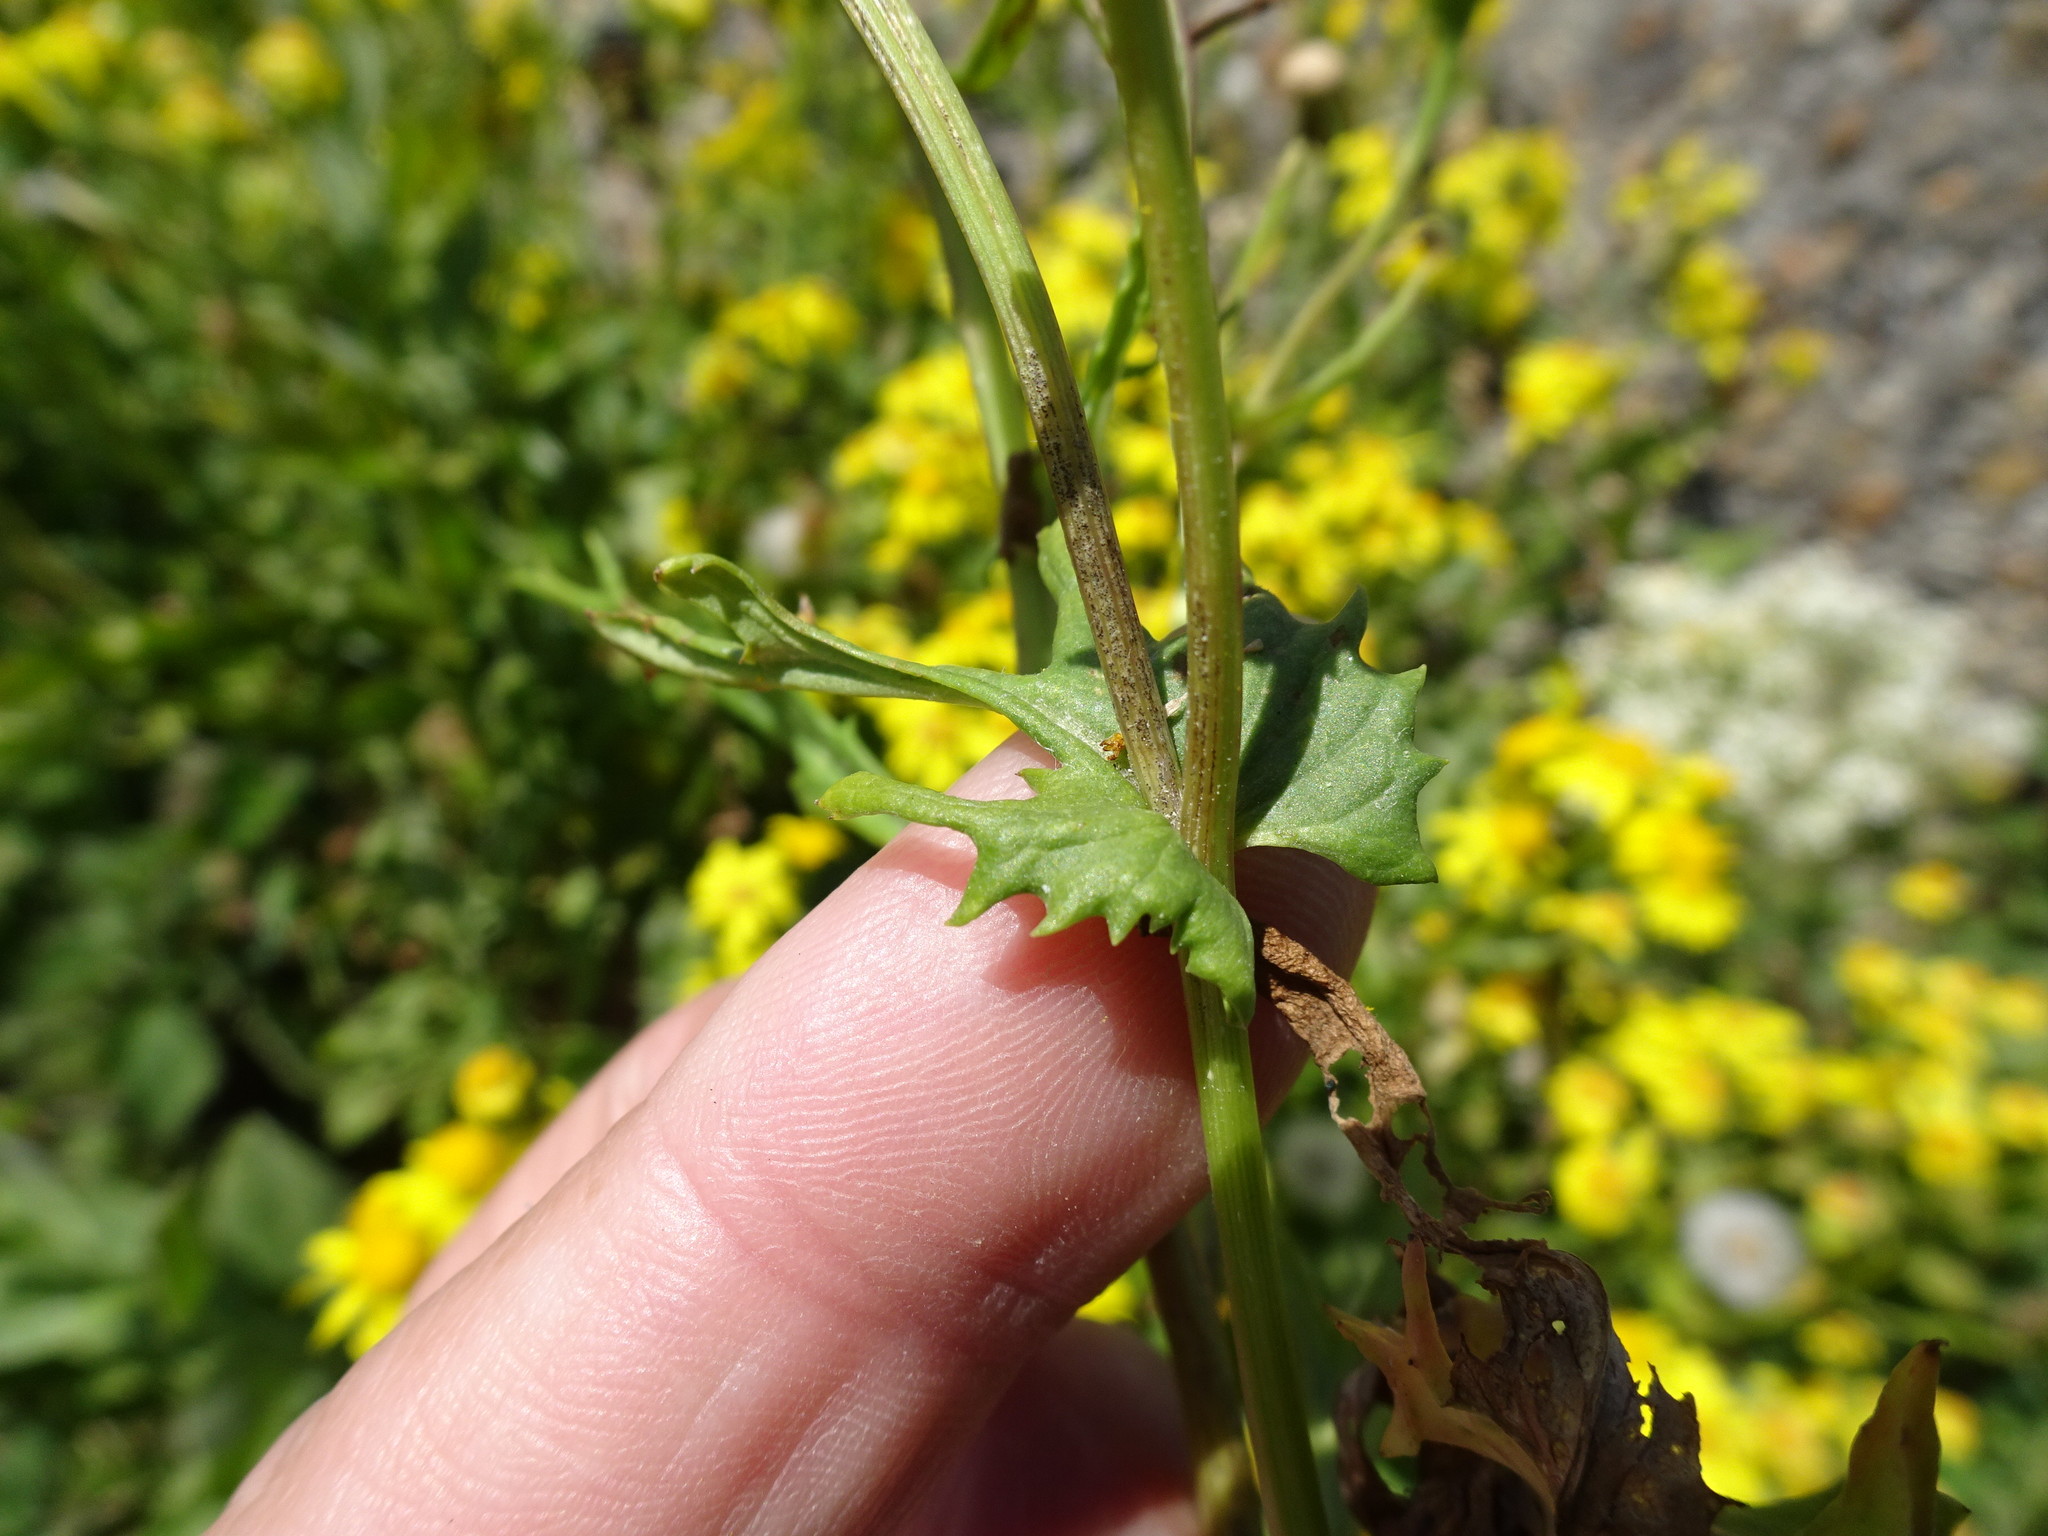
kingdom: Plantae
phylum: Tracheophyta
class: Magnoliopsida
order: Asterales
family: Asteraceae
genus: Senecio
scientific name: Senecio squalidus
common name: Oxford ragwort
